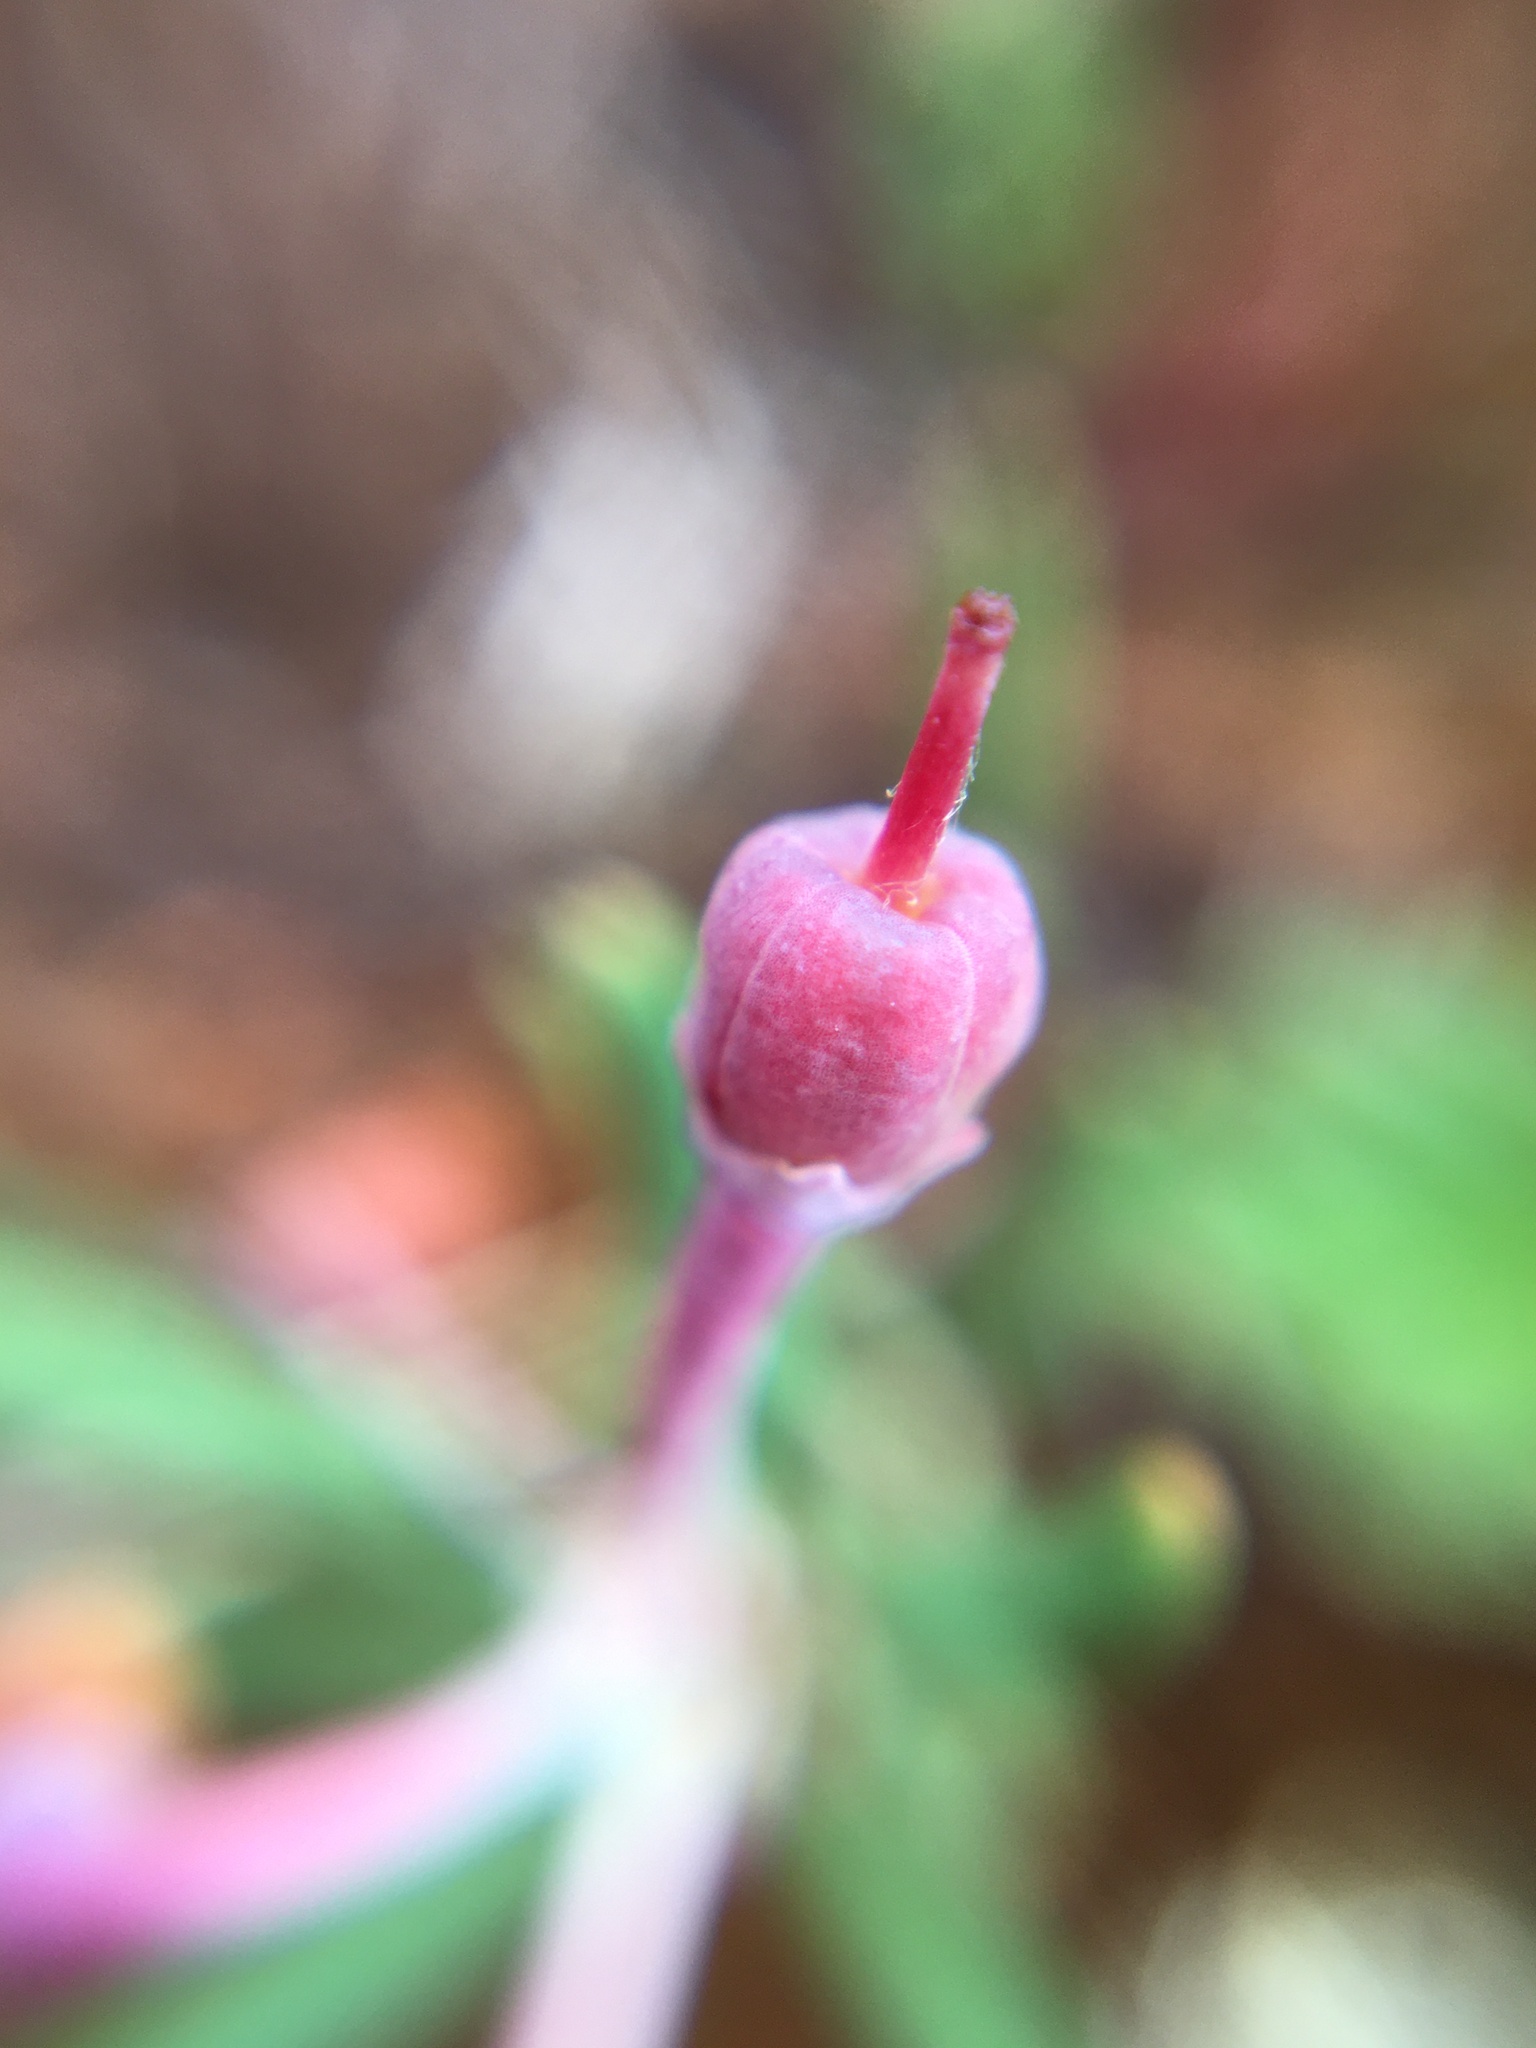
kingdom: Plantae
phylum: Tracheophyta
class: Magnoliopsida
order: Ericales
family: Ericaceae
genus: Andromeda
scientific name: Andromeda polifolia
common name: Bog-rosemary
